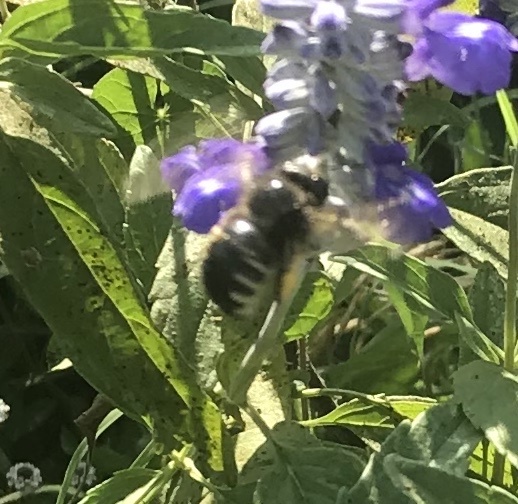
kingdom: Animalia
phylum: Arthropoda
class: Insecta
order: Hymenoptera
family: Apidae
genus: Xylocopa
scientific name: Xylocopa tabaniformis
